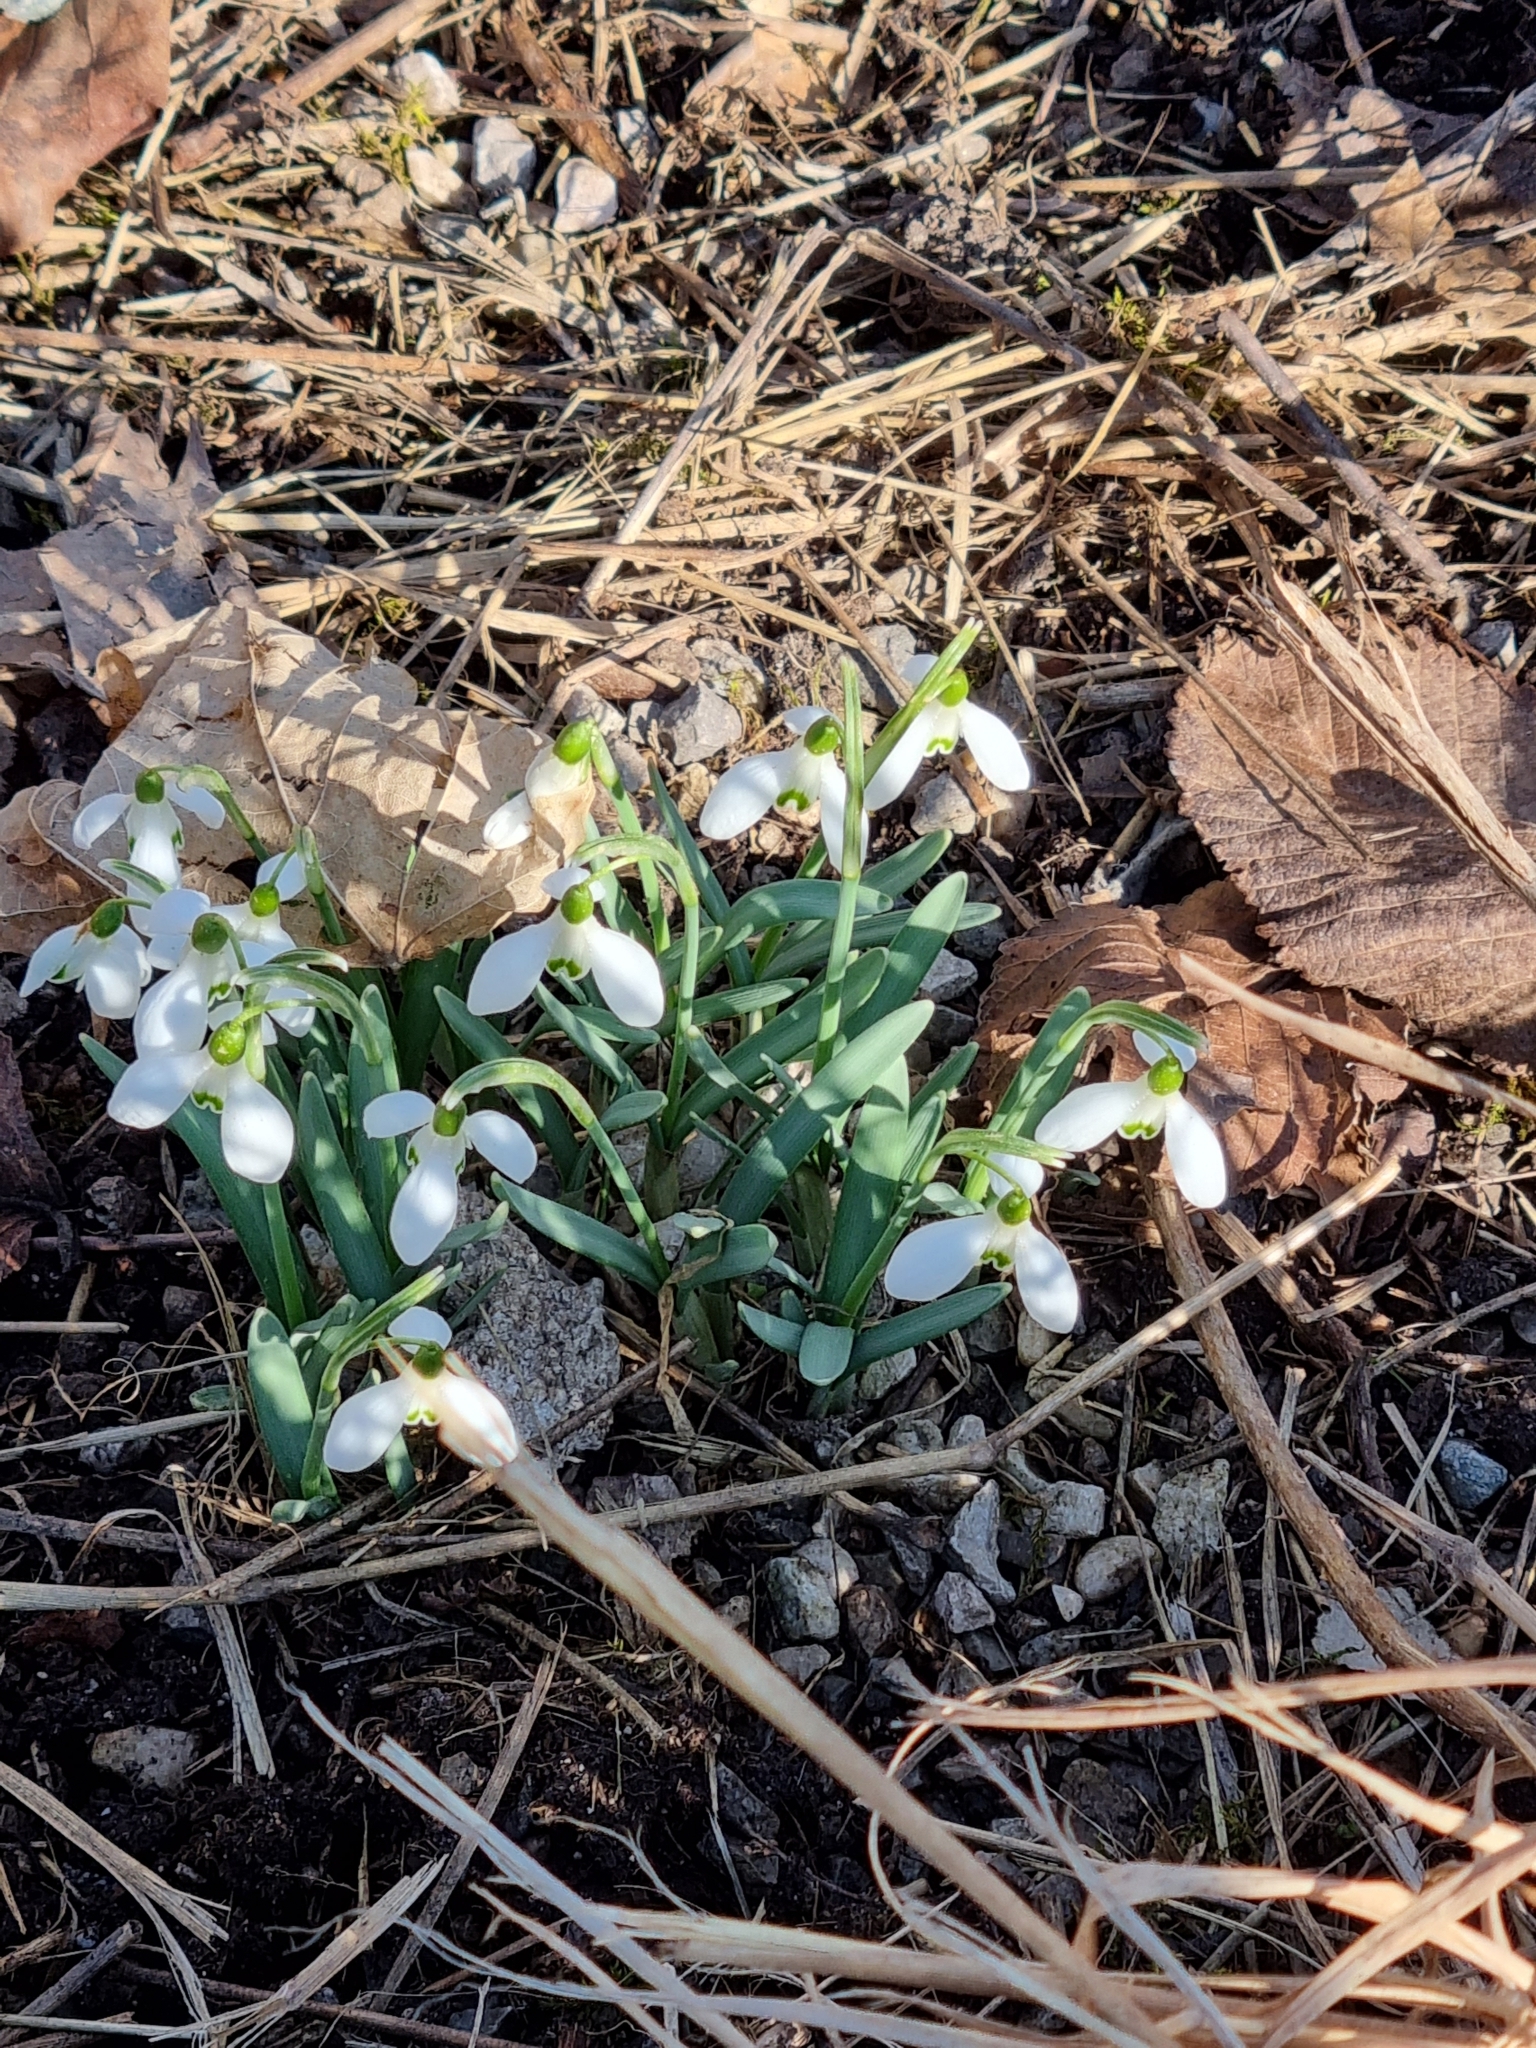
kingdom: Plantae
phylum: Tracheophyta
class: Liliopsida
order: Asparagales
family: Amaryllidaceae
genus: Galanthus
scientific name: Galanthus nivalis
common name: Snowdrop
